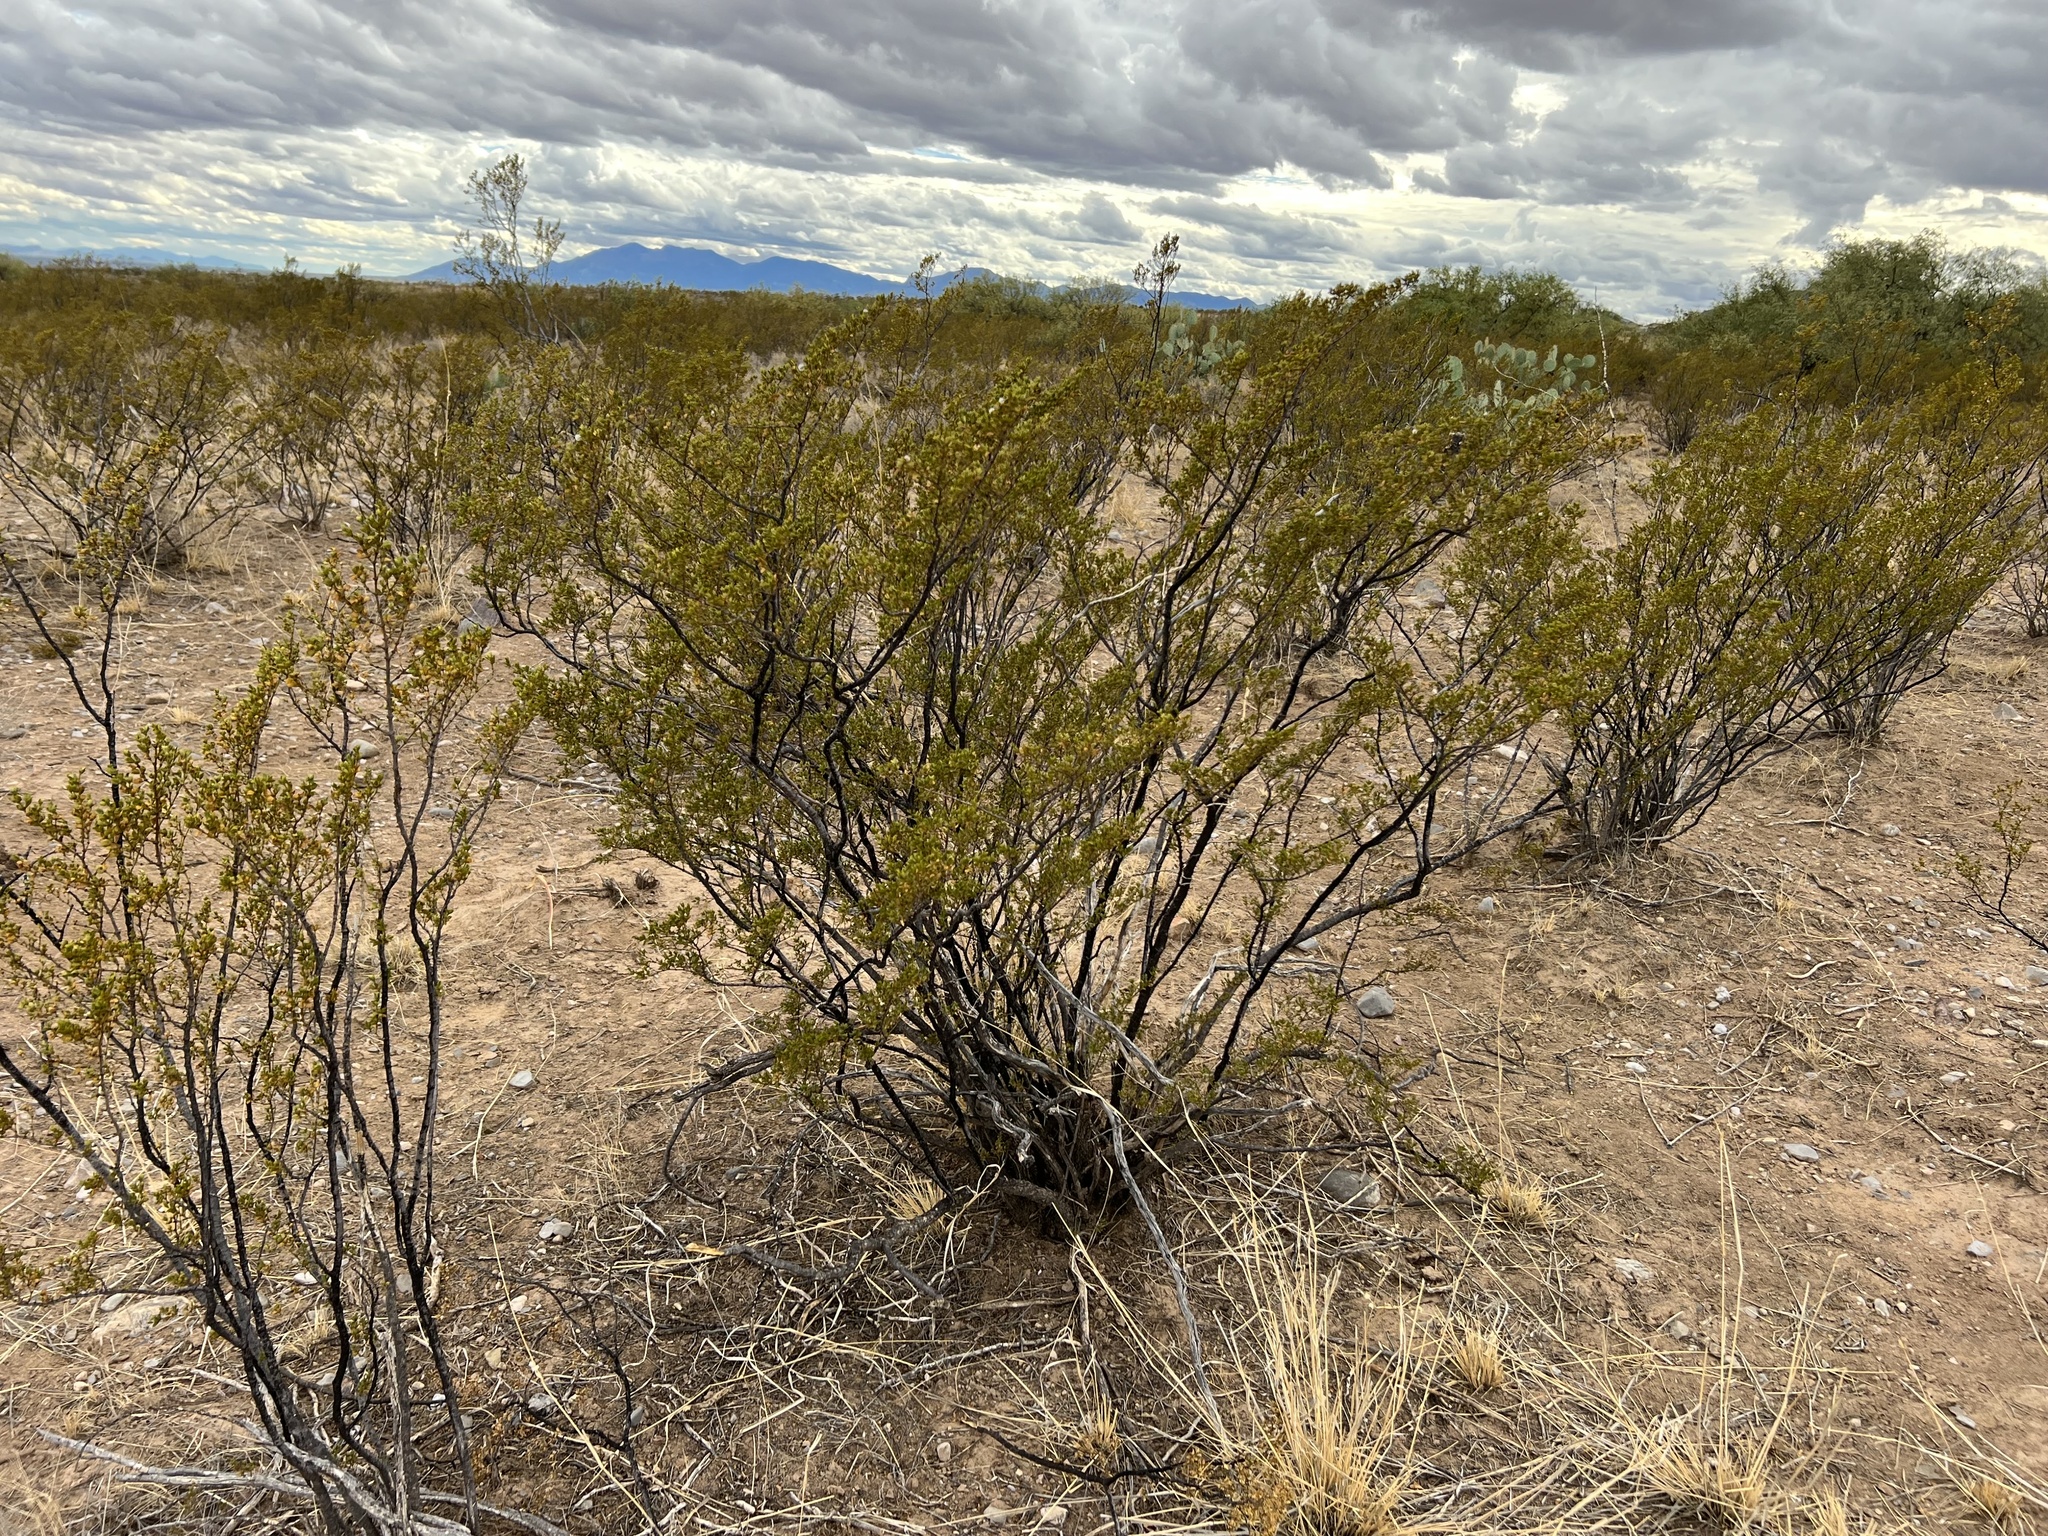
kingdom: Plantae
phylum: Tracheophyta
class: Magnoliopsida
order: Zygophyllales
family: Zygophyllaceae
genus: Larrea
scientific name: Larrea tridentata
